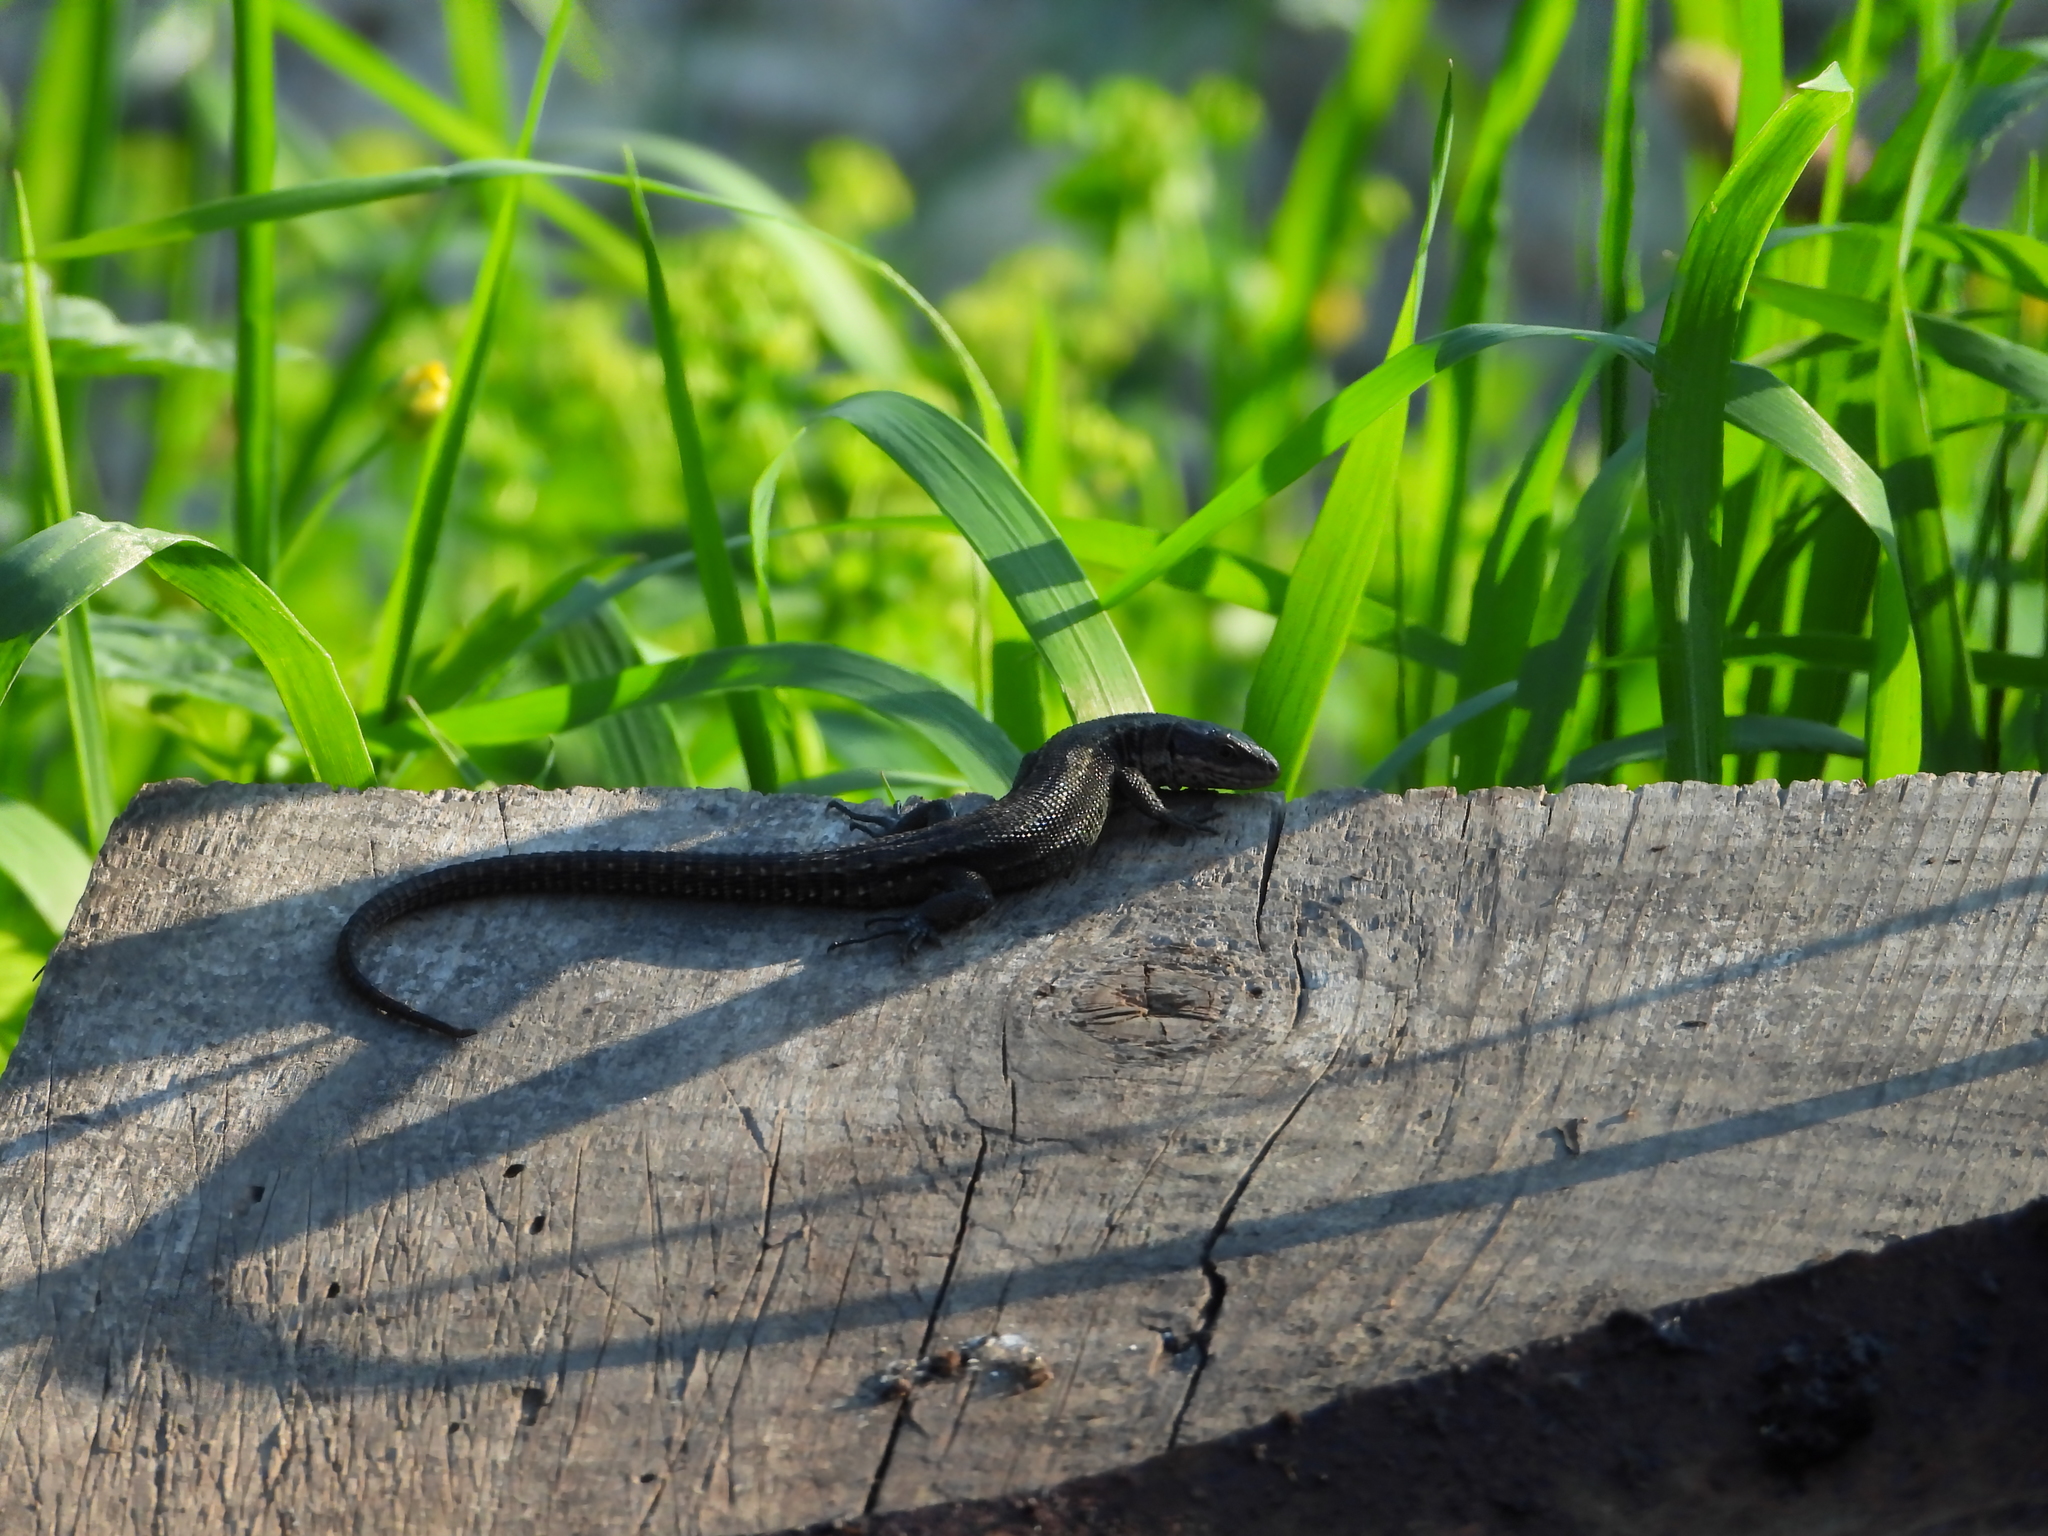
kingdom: Animalia
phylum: Chordata
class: Squamata
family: Lacertidae
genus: Zootoca
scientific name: Zootoca vivipara
